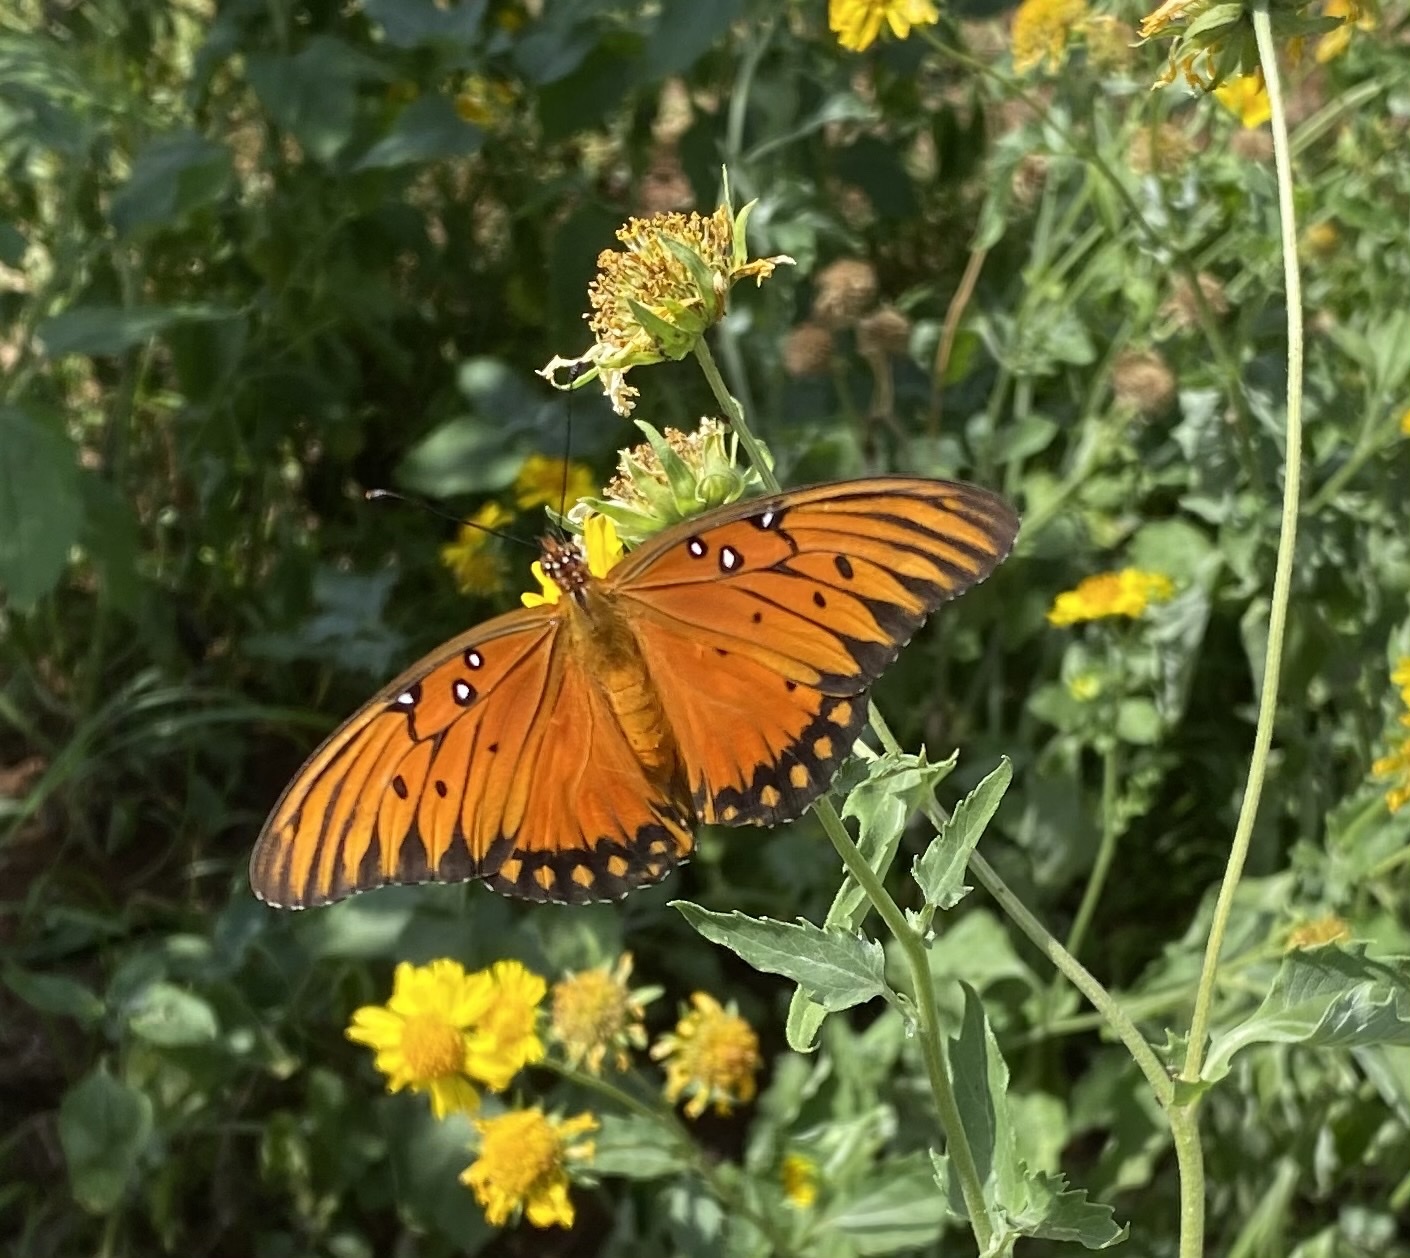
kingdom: Animalia
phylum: Arthropoda
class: Insecta
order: Lepidoptera
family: Nymphalidae
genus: Dione
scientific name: Dione vanillae
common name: Gulf fritillary
